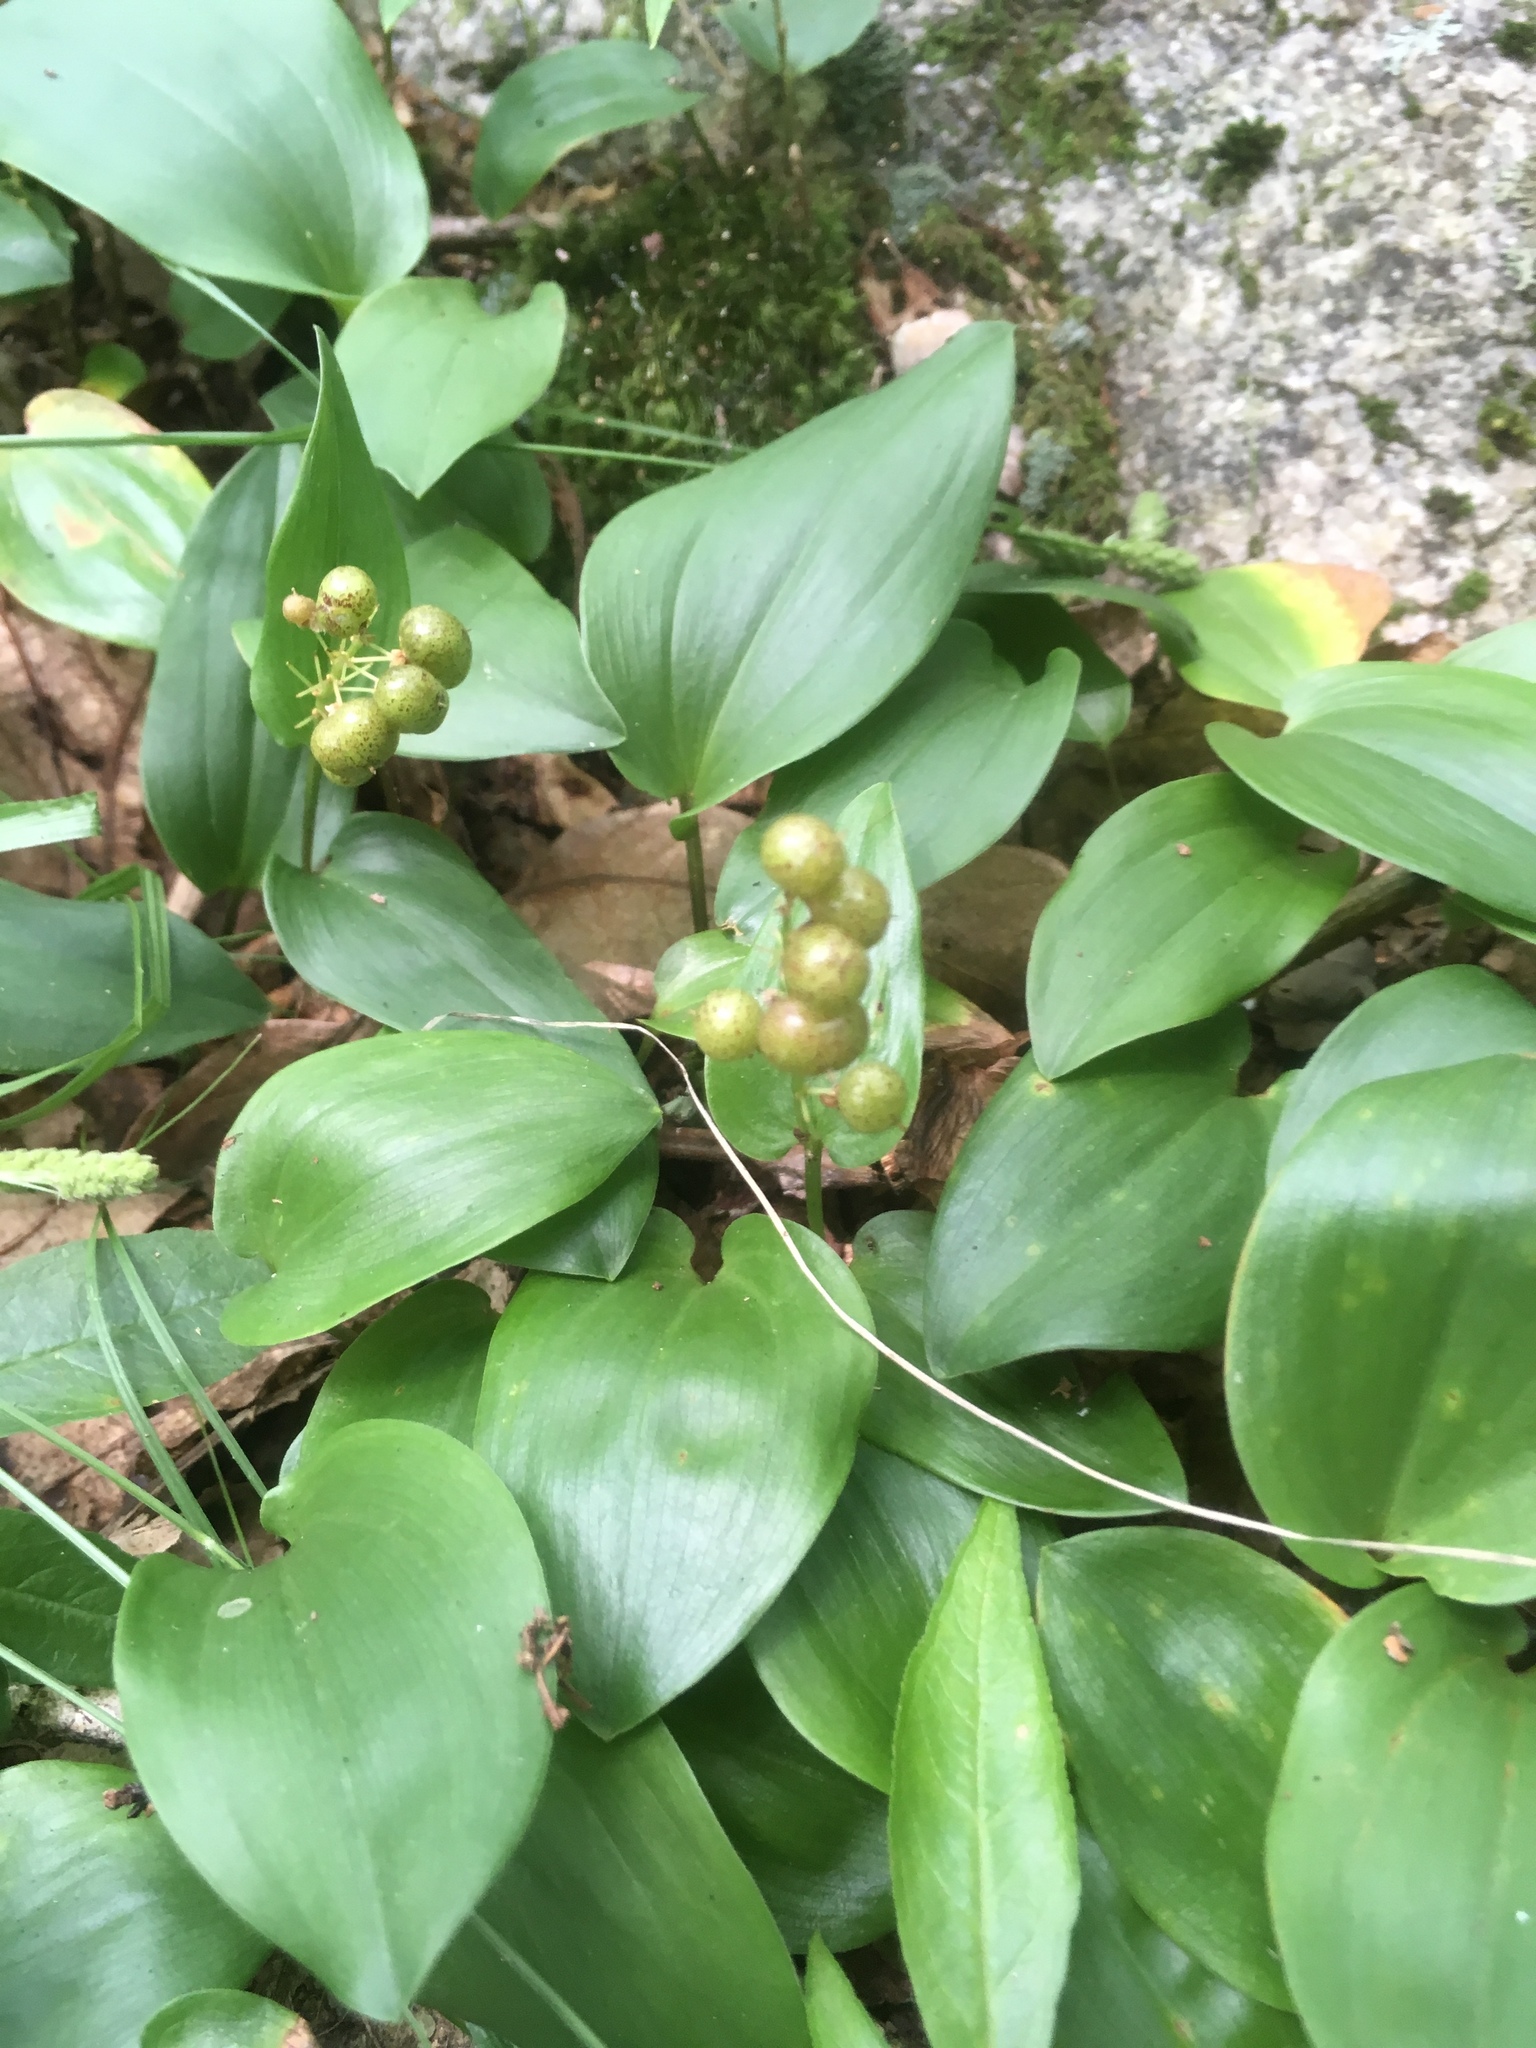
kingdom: Plantae
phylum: Tracheophyta
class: Liliopsida
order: Asparagales
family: Asparagaceae
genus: Maianthemum
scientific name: Maianthemum canadense
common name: False lily-of-the-valley
